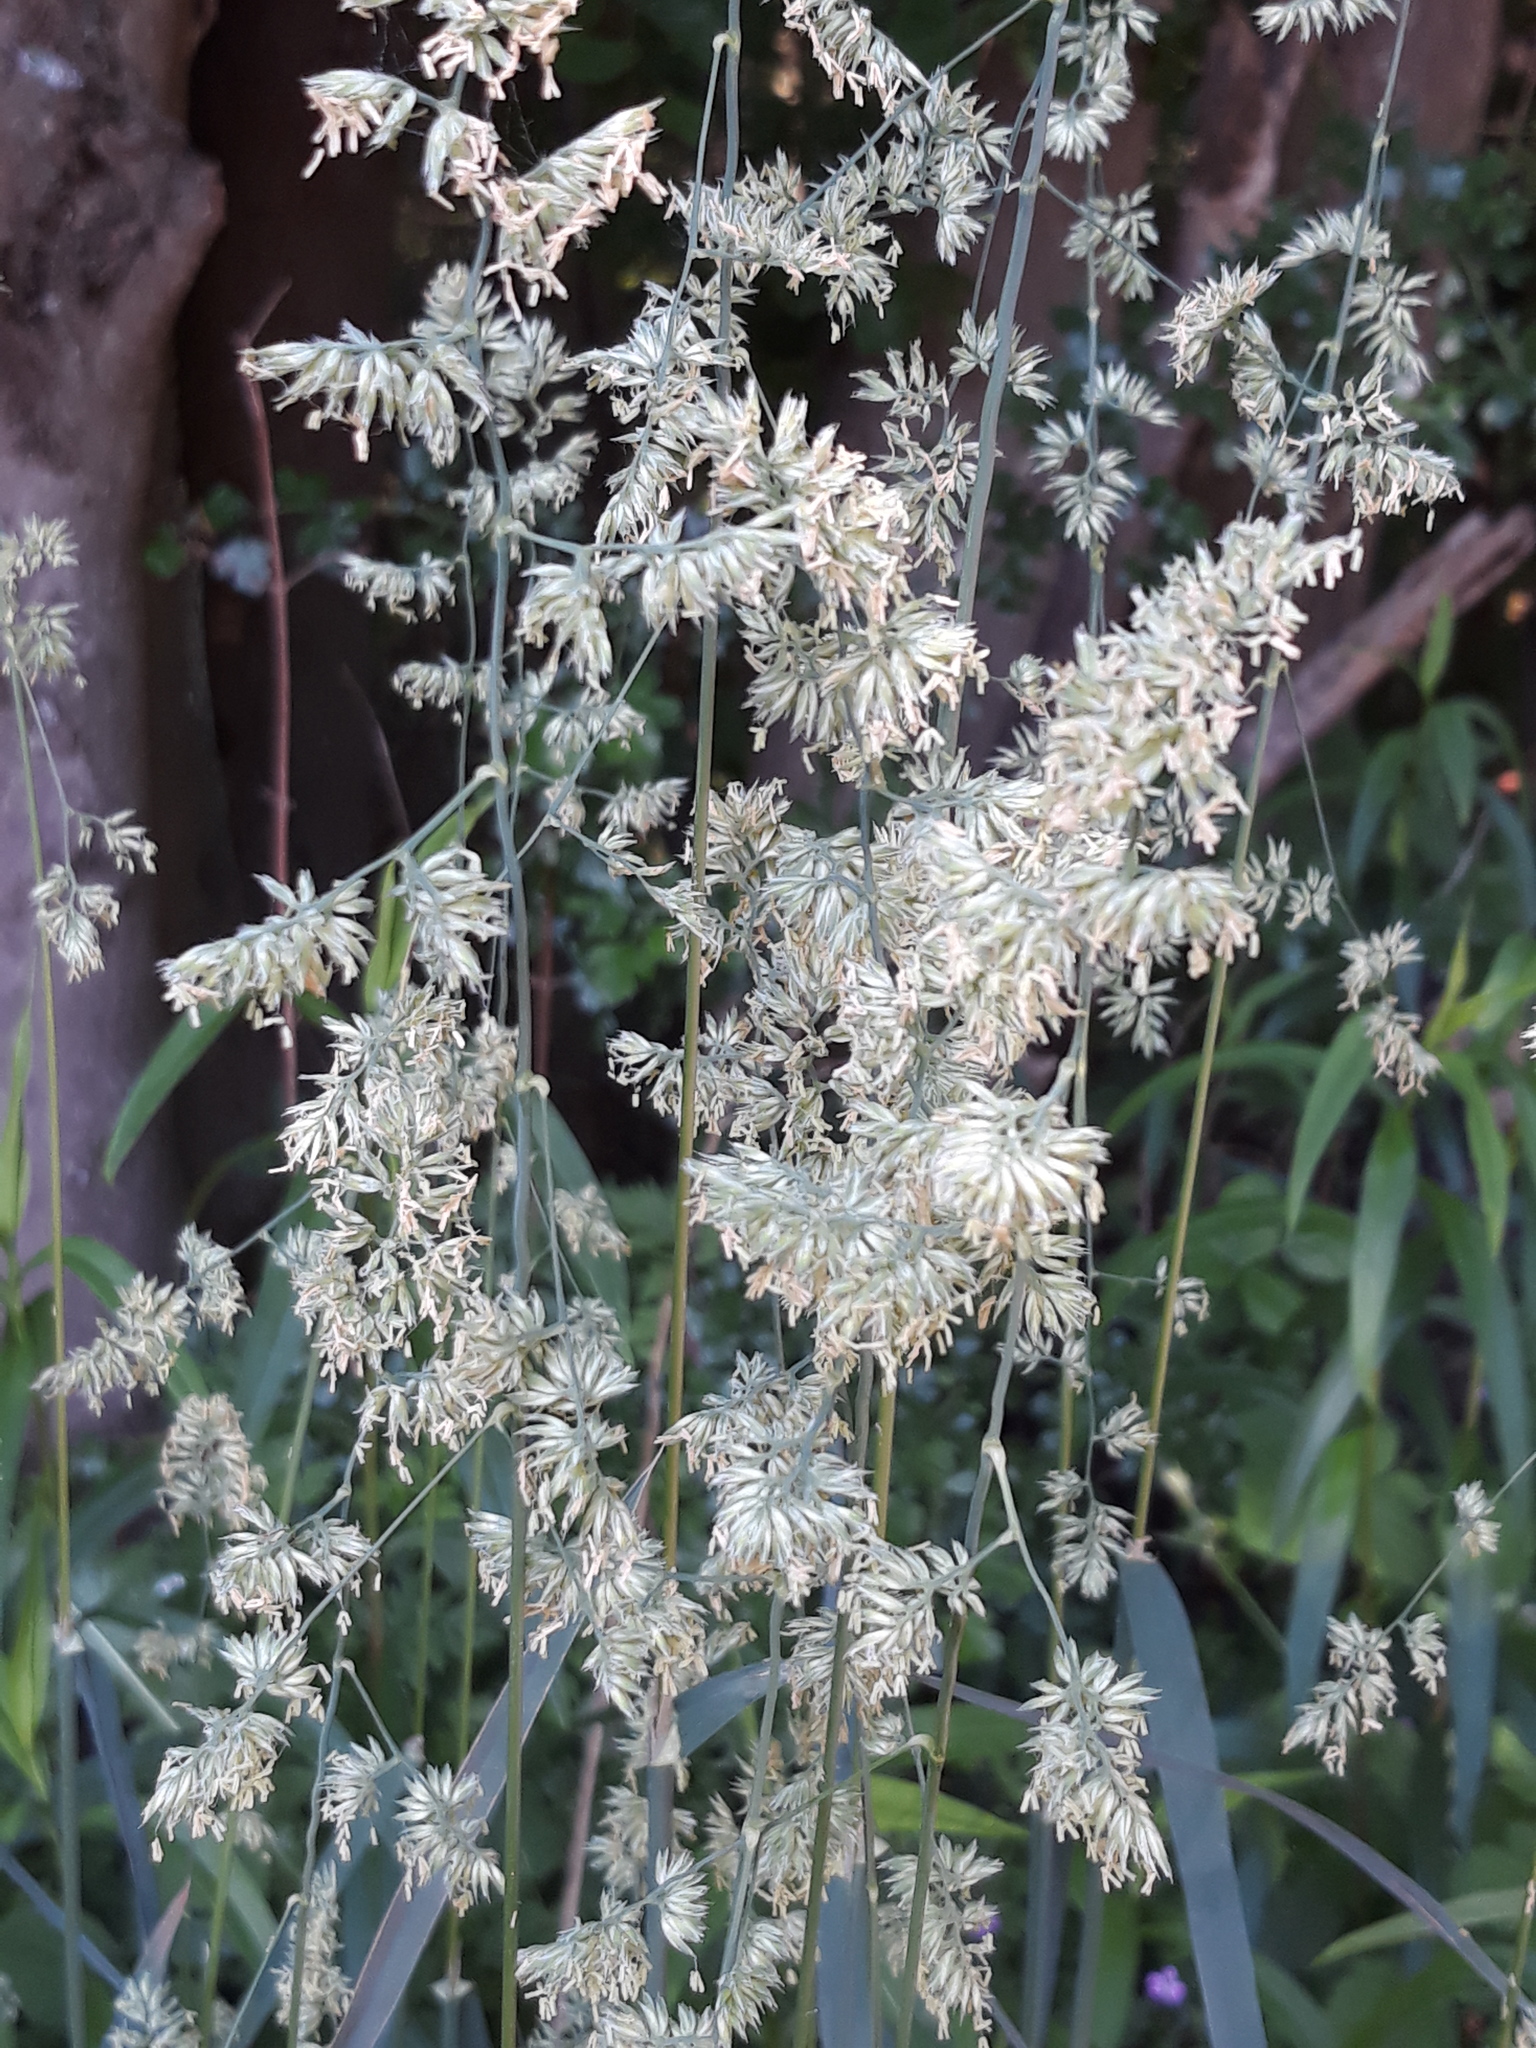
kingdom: Plantae
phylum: Tracheophyta
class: Liliopsida
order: Poales
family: Poaceae
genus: Dactylis
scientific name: Dactylis glomerata
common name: Orchardgrass
